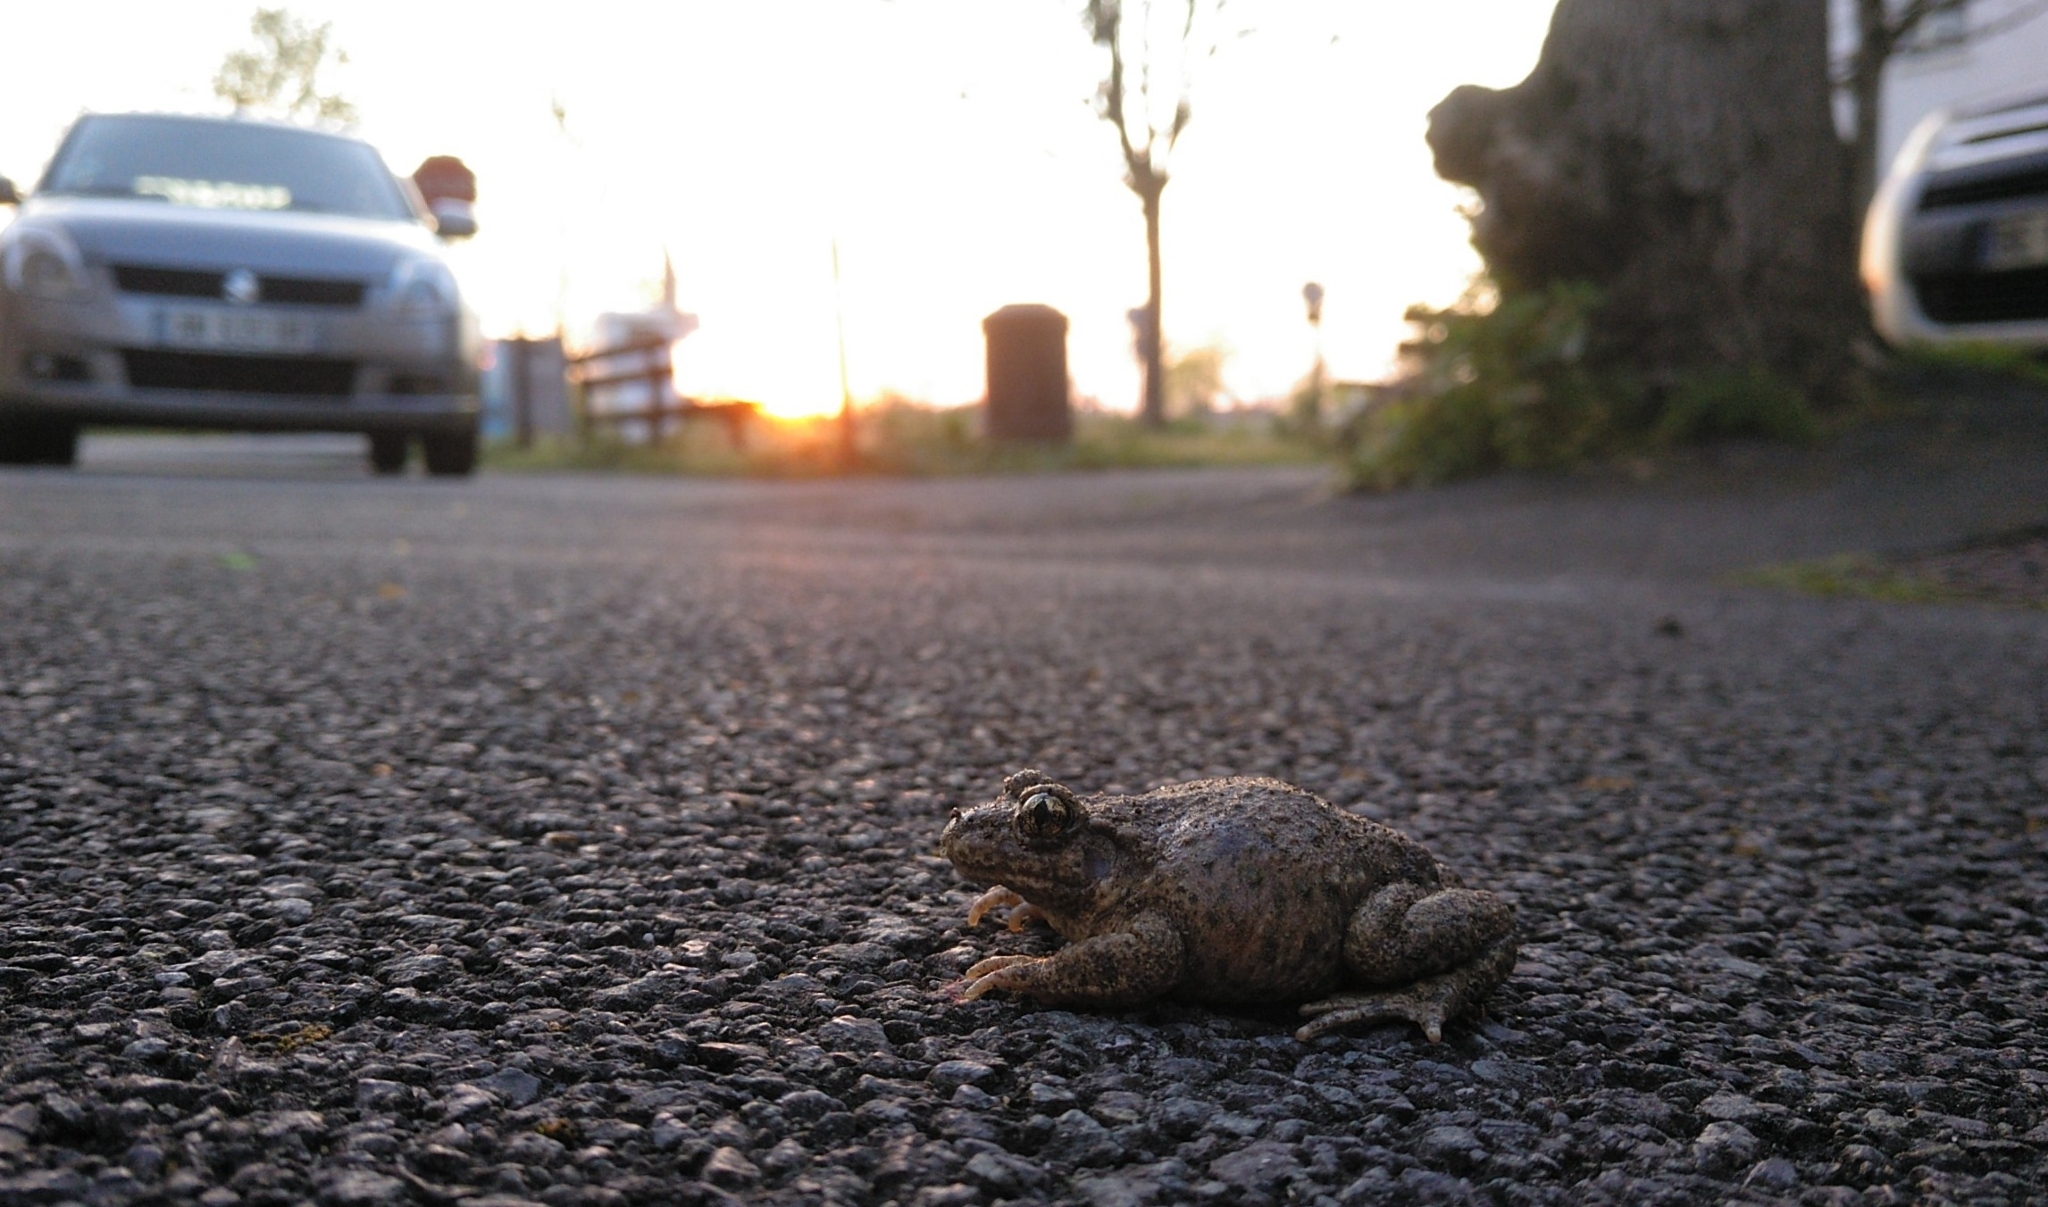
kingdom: Animalia
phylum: Chordata
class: Amphibia
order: Anura
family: Alytidae
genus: Alytes
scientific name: Alytes obstetricans
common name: Midwife toad
